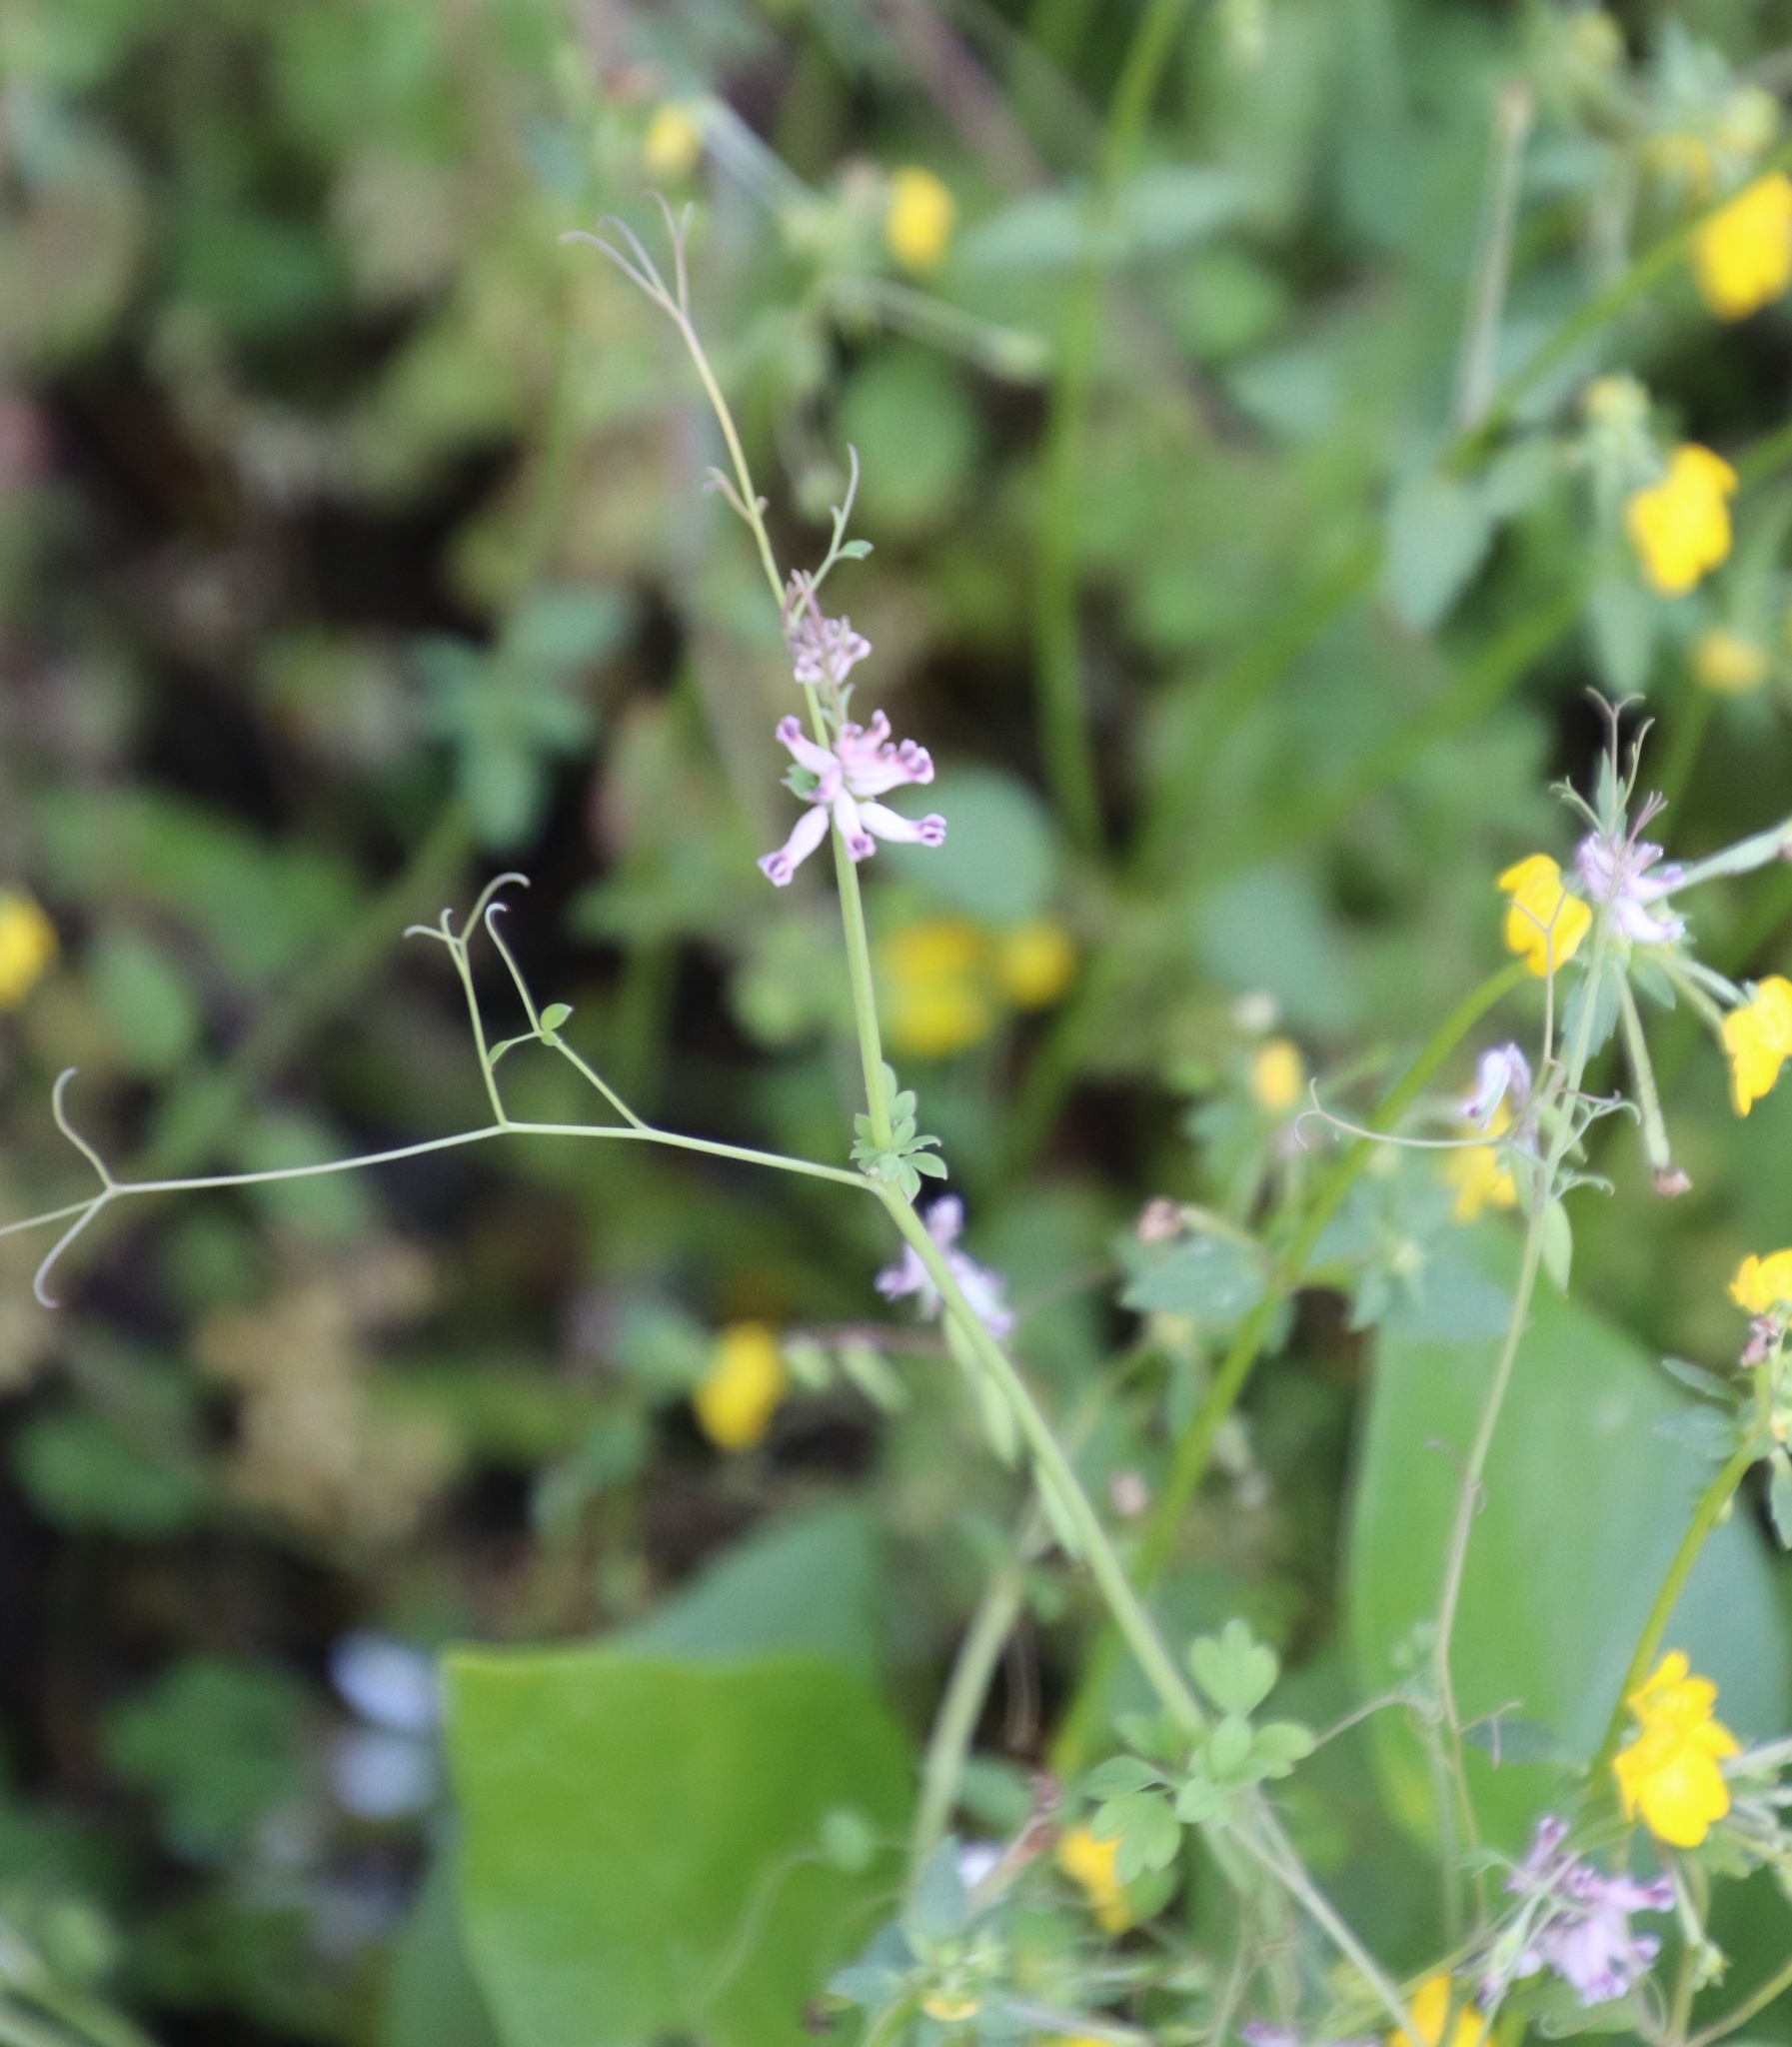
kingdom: Plantae
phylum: Tracheophyta
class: Magnoliopsida
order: Ranunculales
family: Papaveraceae
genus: Cysticapnos
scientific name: Cysticapnos cracca
